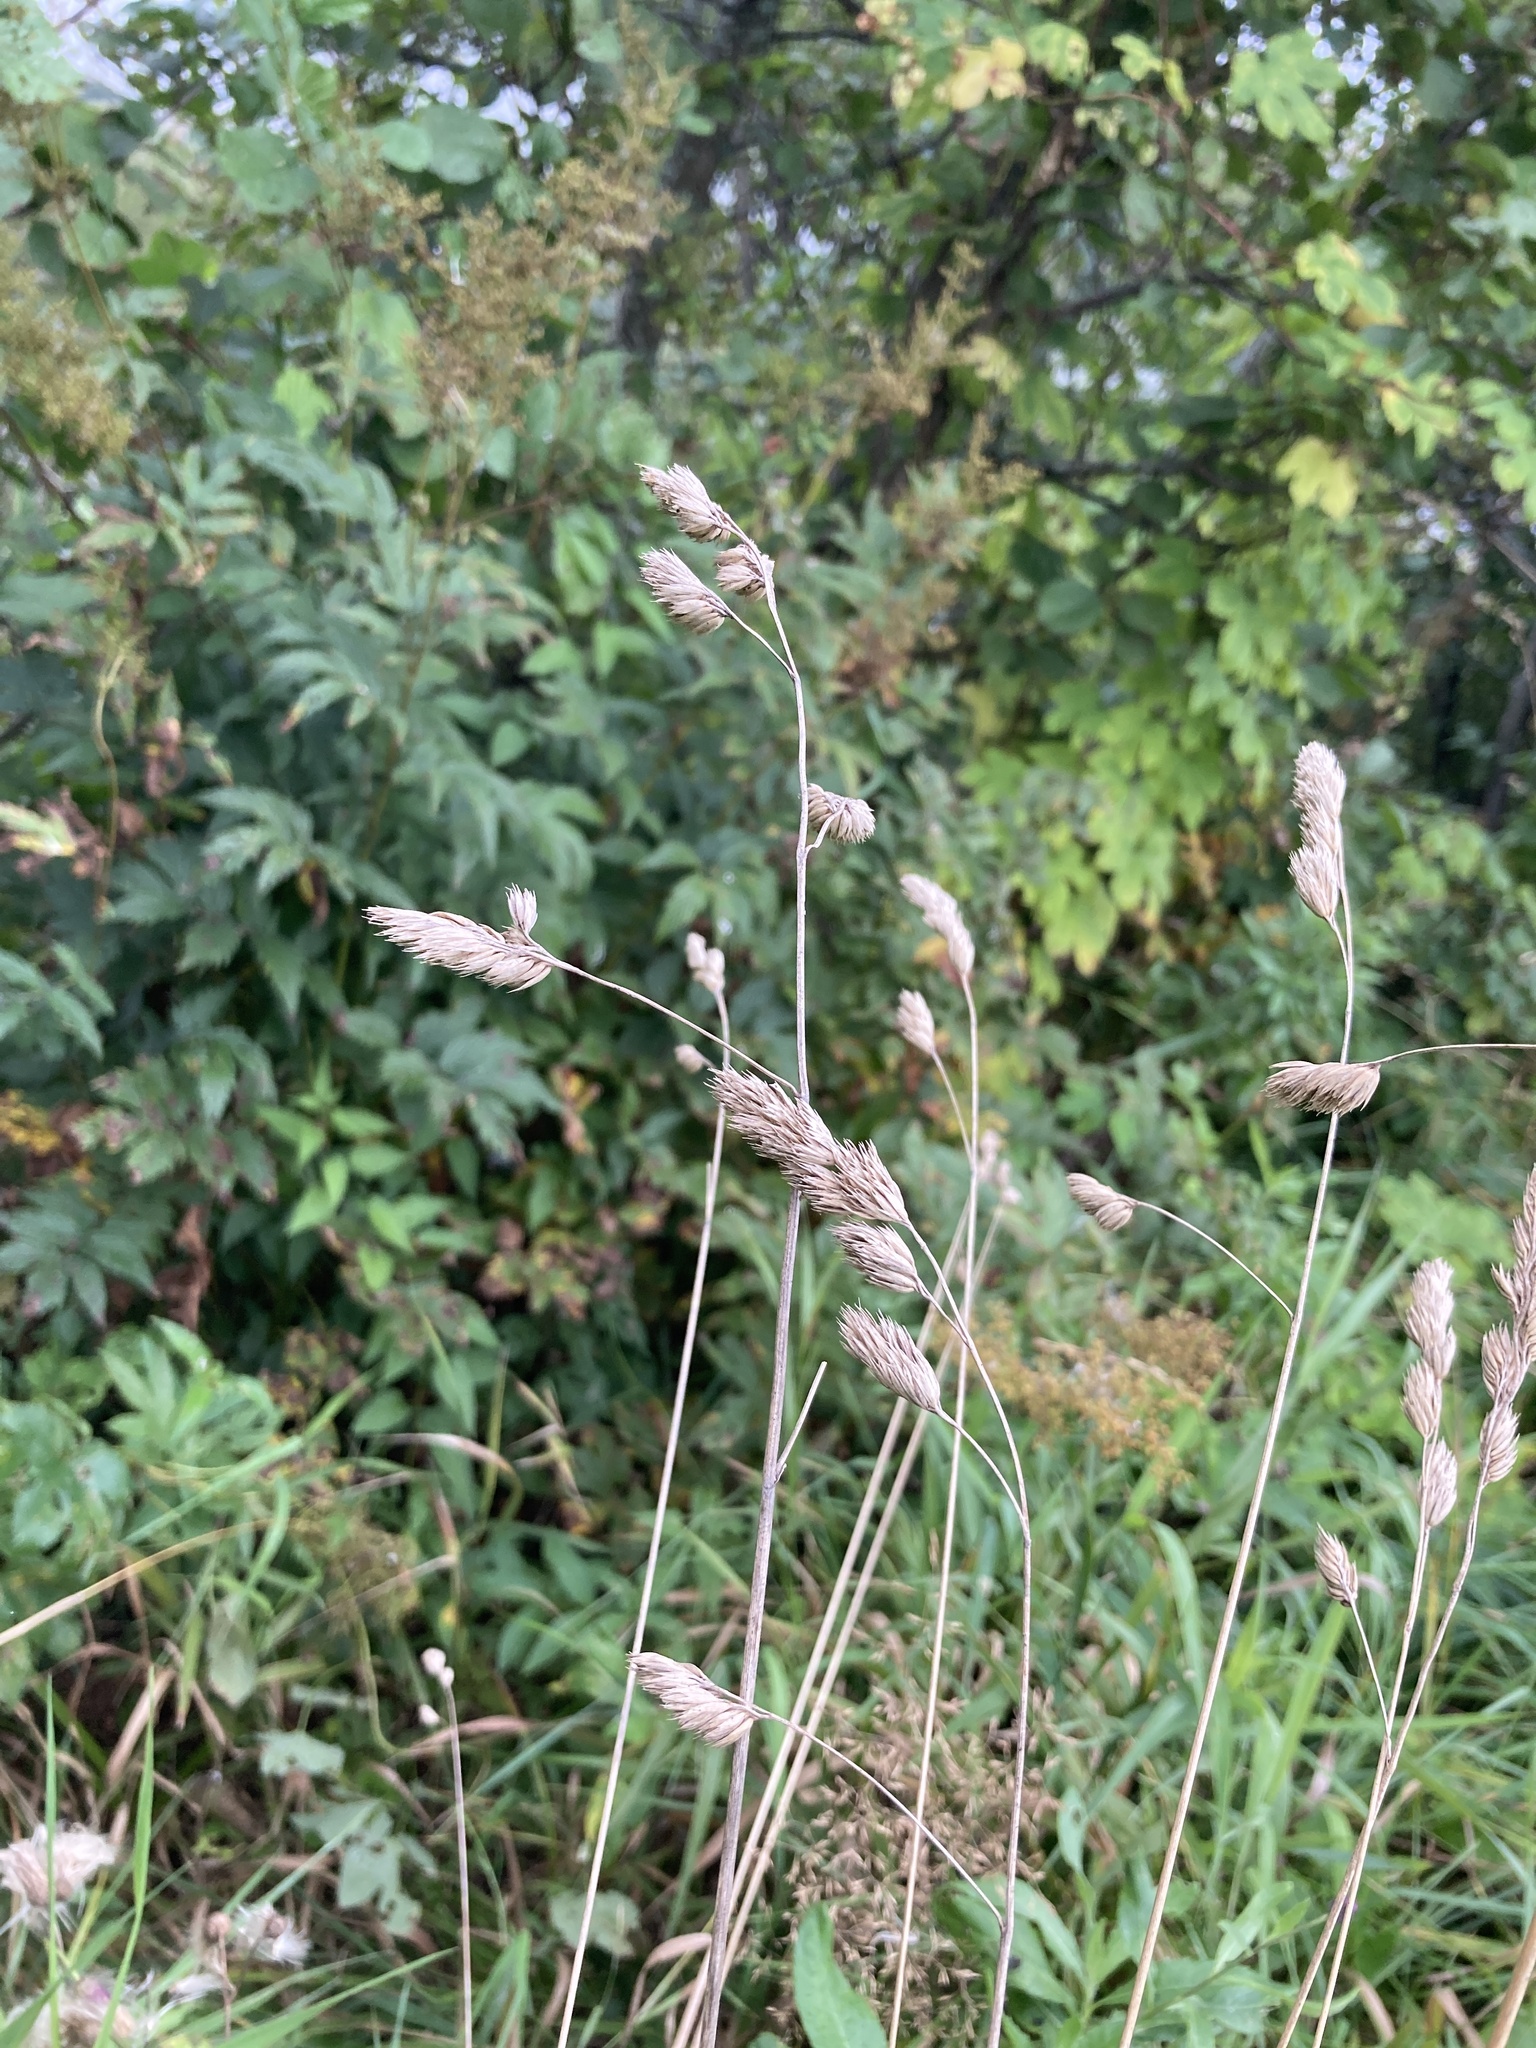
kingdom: Plantae
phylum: Tracheophyta
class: Liliopsida
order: Poales
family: Poaceae
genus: Dactylis
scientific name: Dactylis glomerata
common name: Orchardgrass
